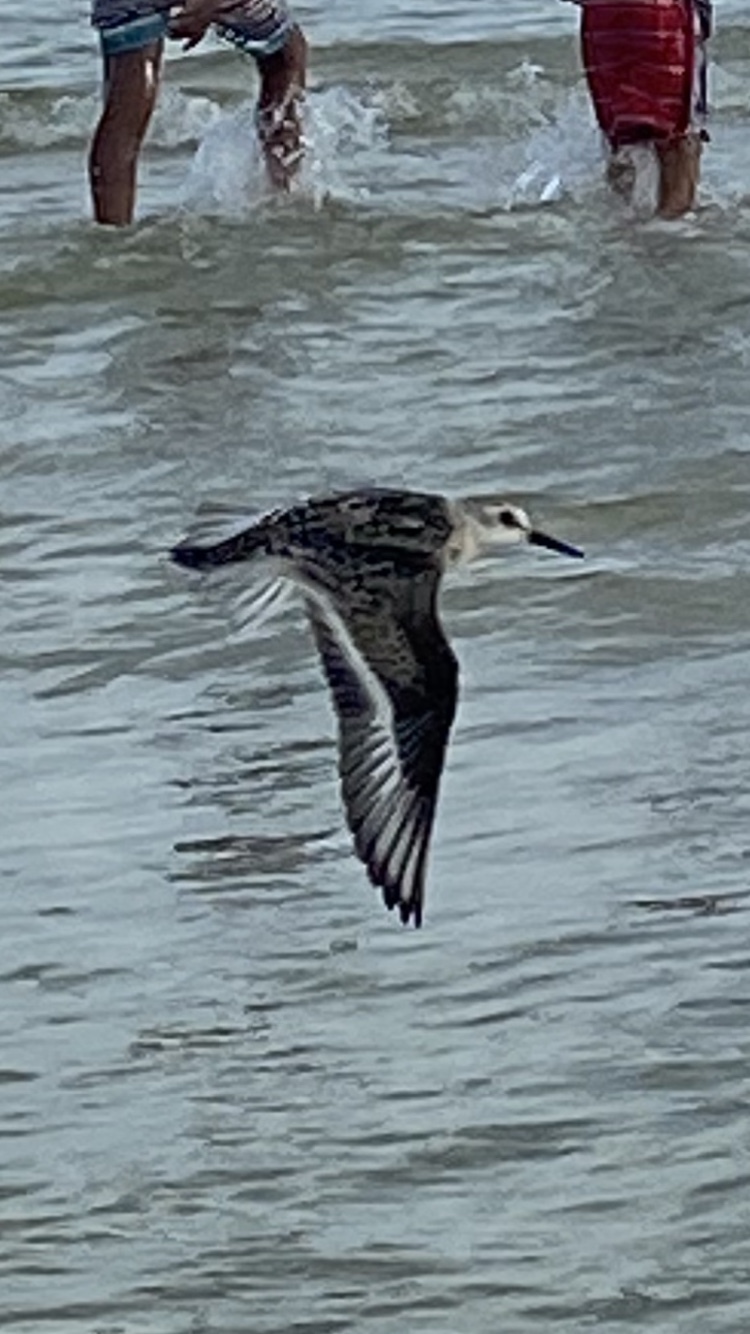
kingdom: Animalia
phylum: Chordata
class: Aves
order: Charadriiformes
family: Scolopacidae
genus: Calidris
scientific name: Calidris alba
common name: Sanderling
